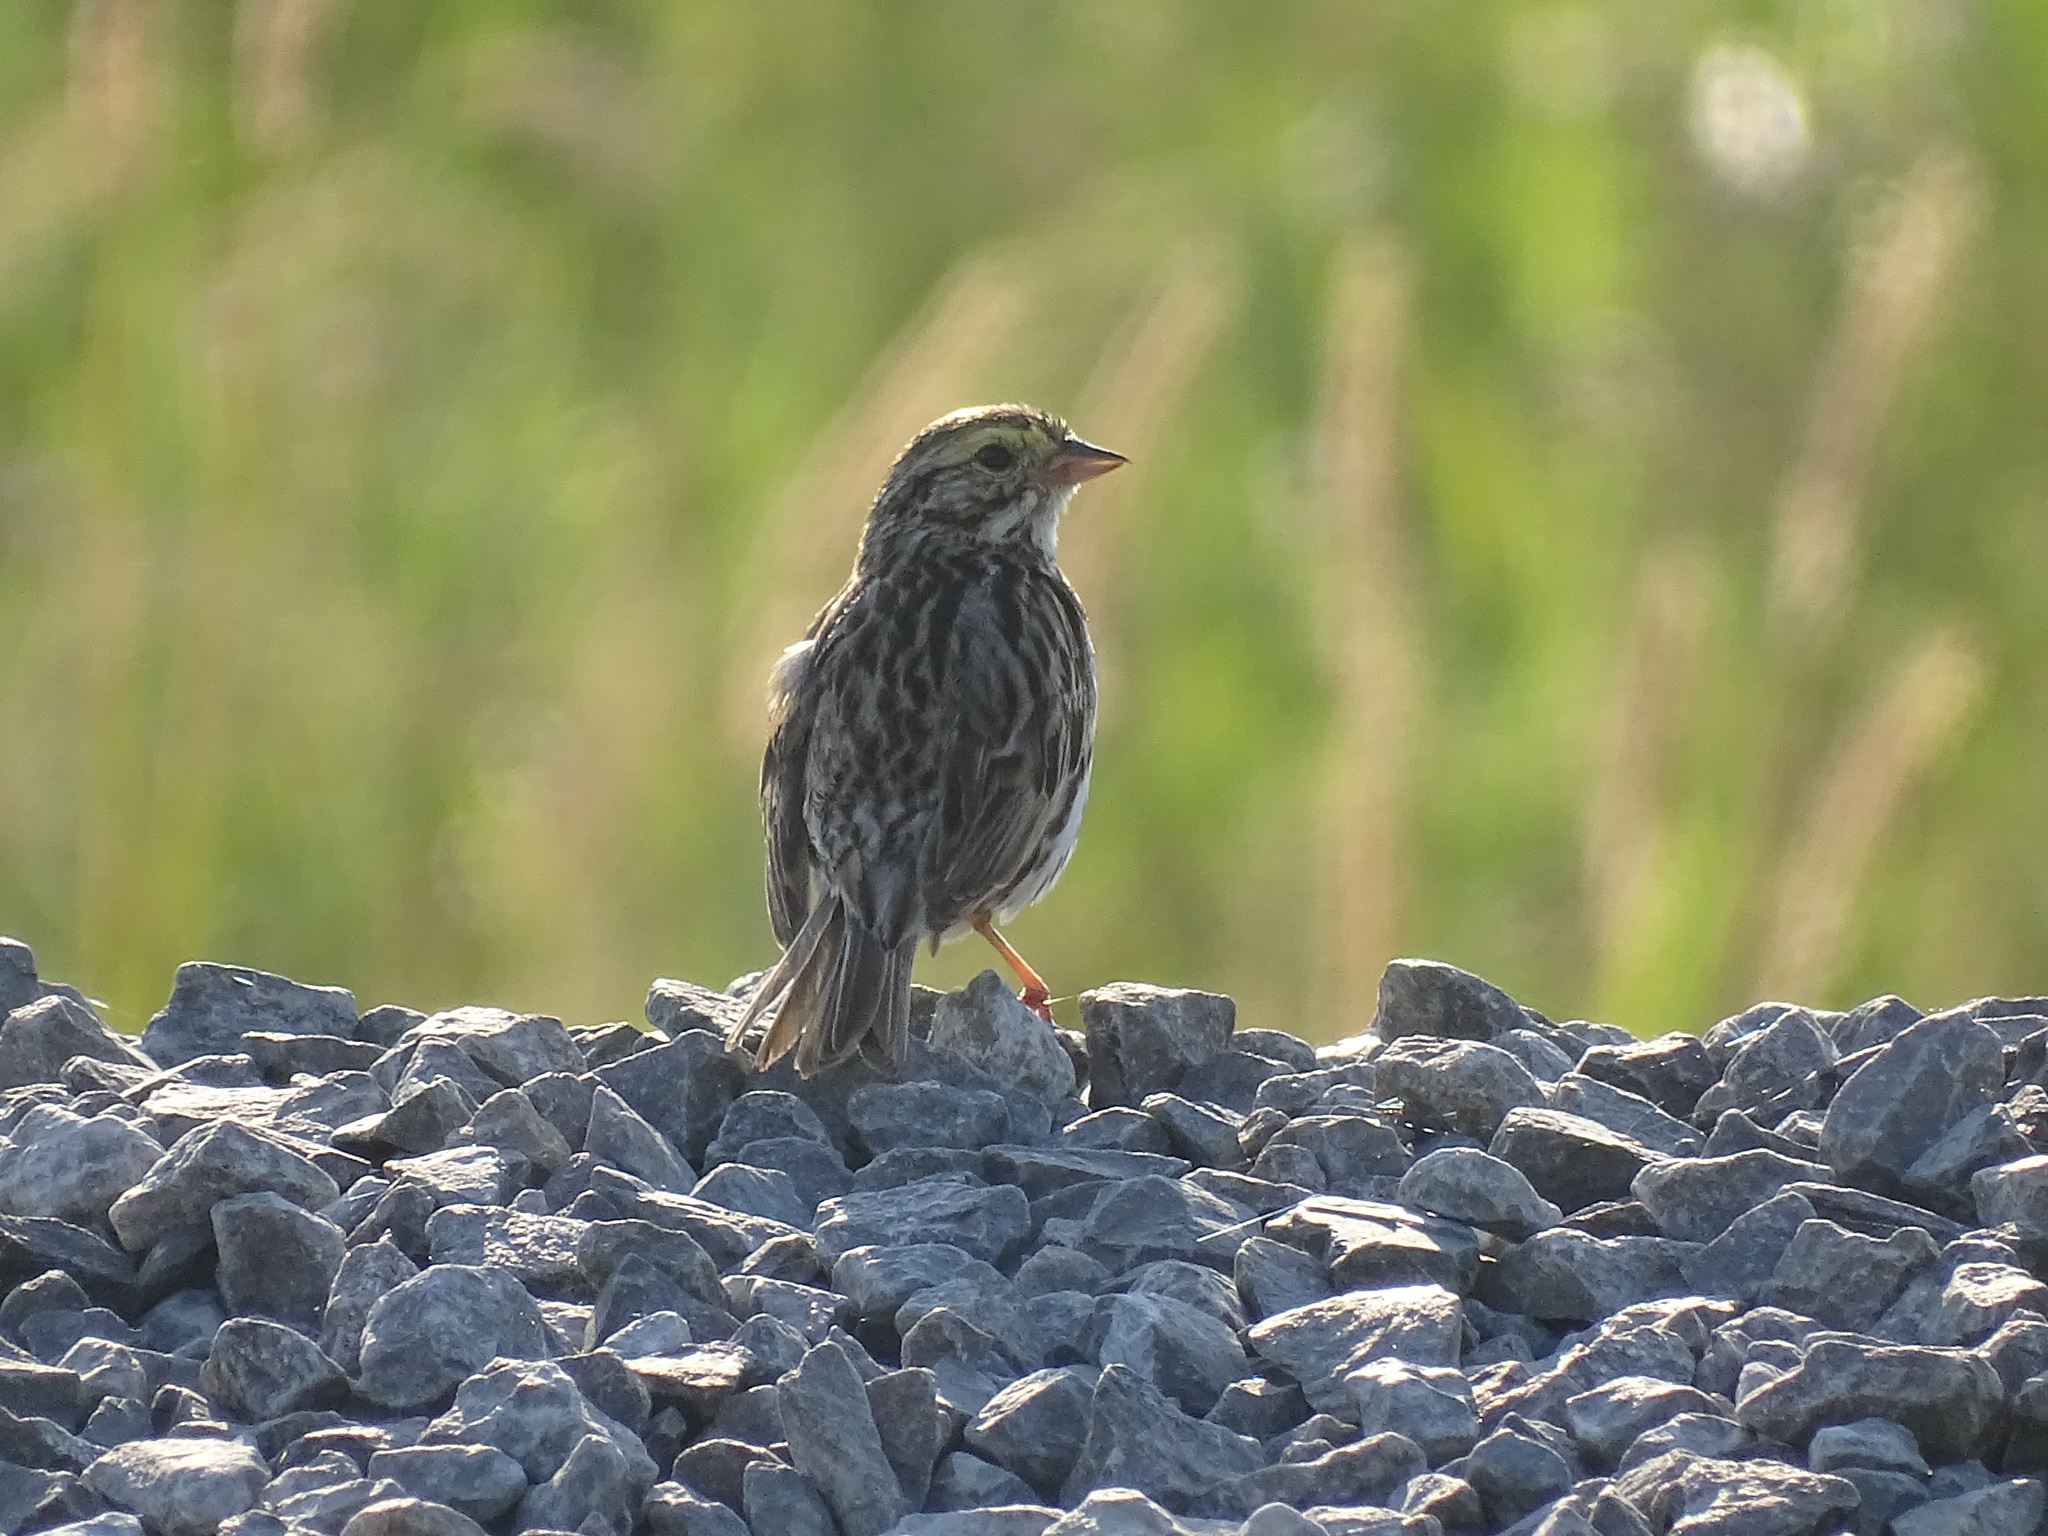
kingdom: Animalia
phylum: Chordata
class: Aves
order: Passeriformes
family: Passerellidae
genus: Passerculus
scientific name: Passerculus sandwichensis
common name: Savannah sparrow
